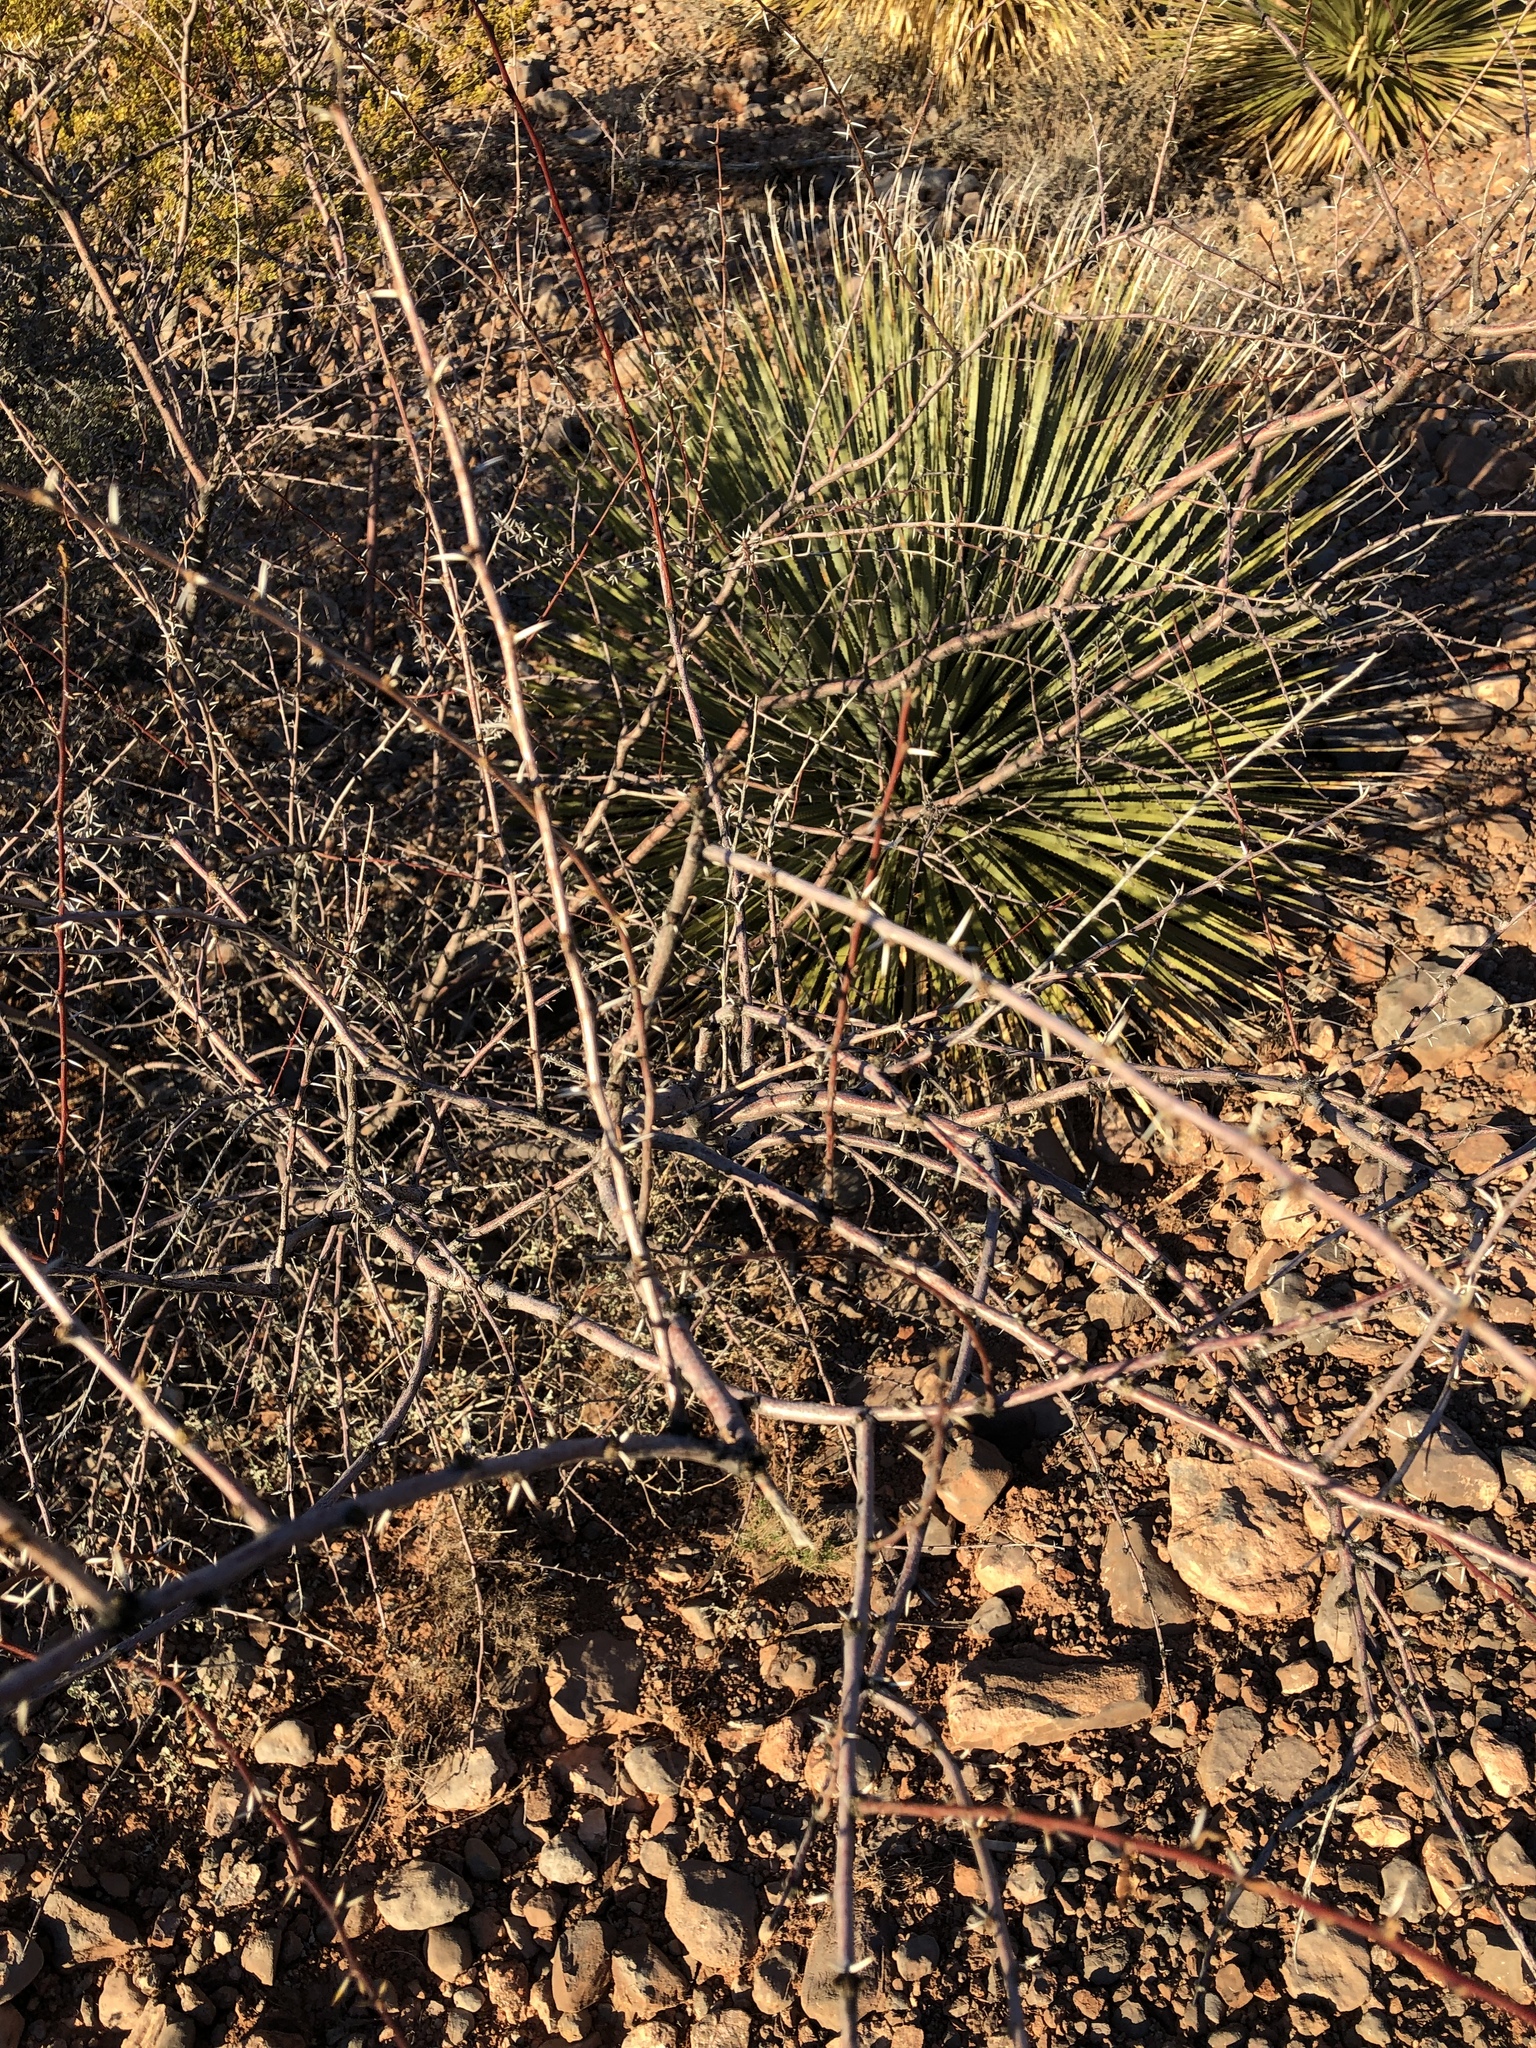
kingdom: Plantae
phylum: Tracheophyta
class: Magnoliopsida
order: Fabales
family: Fabaceae
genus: Vachellia
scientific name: Vachellia constricta
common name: Mescat acacia
